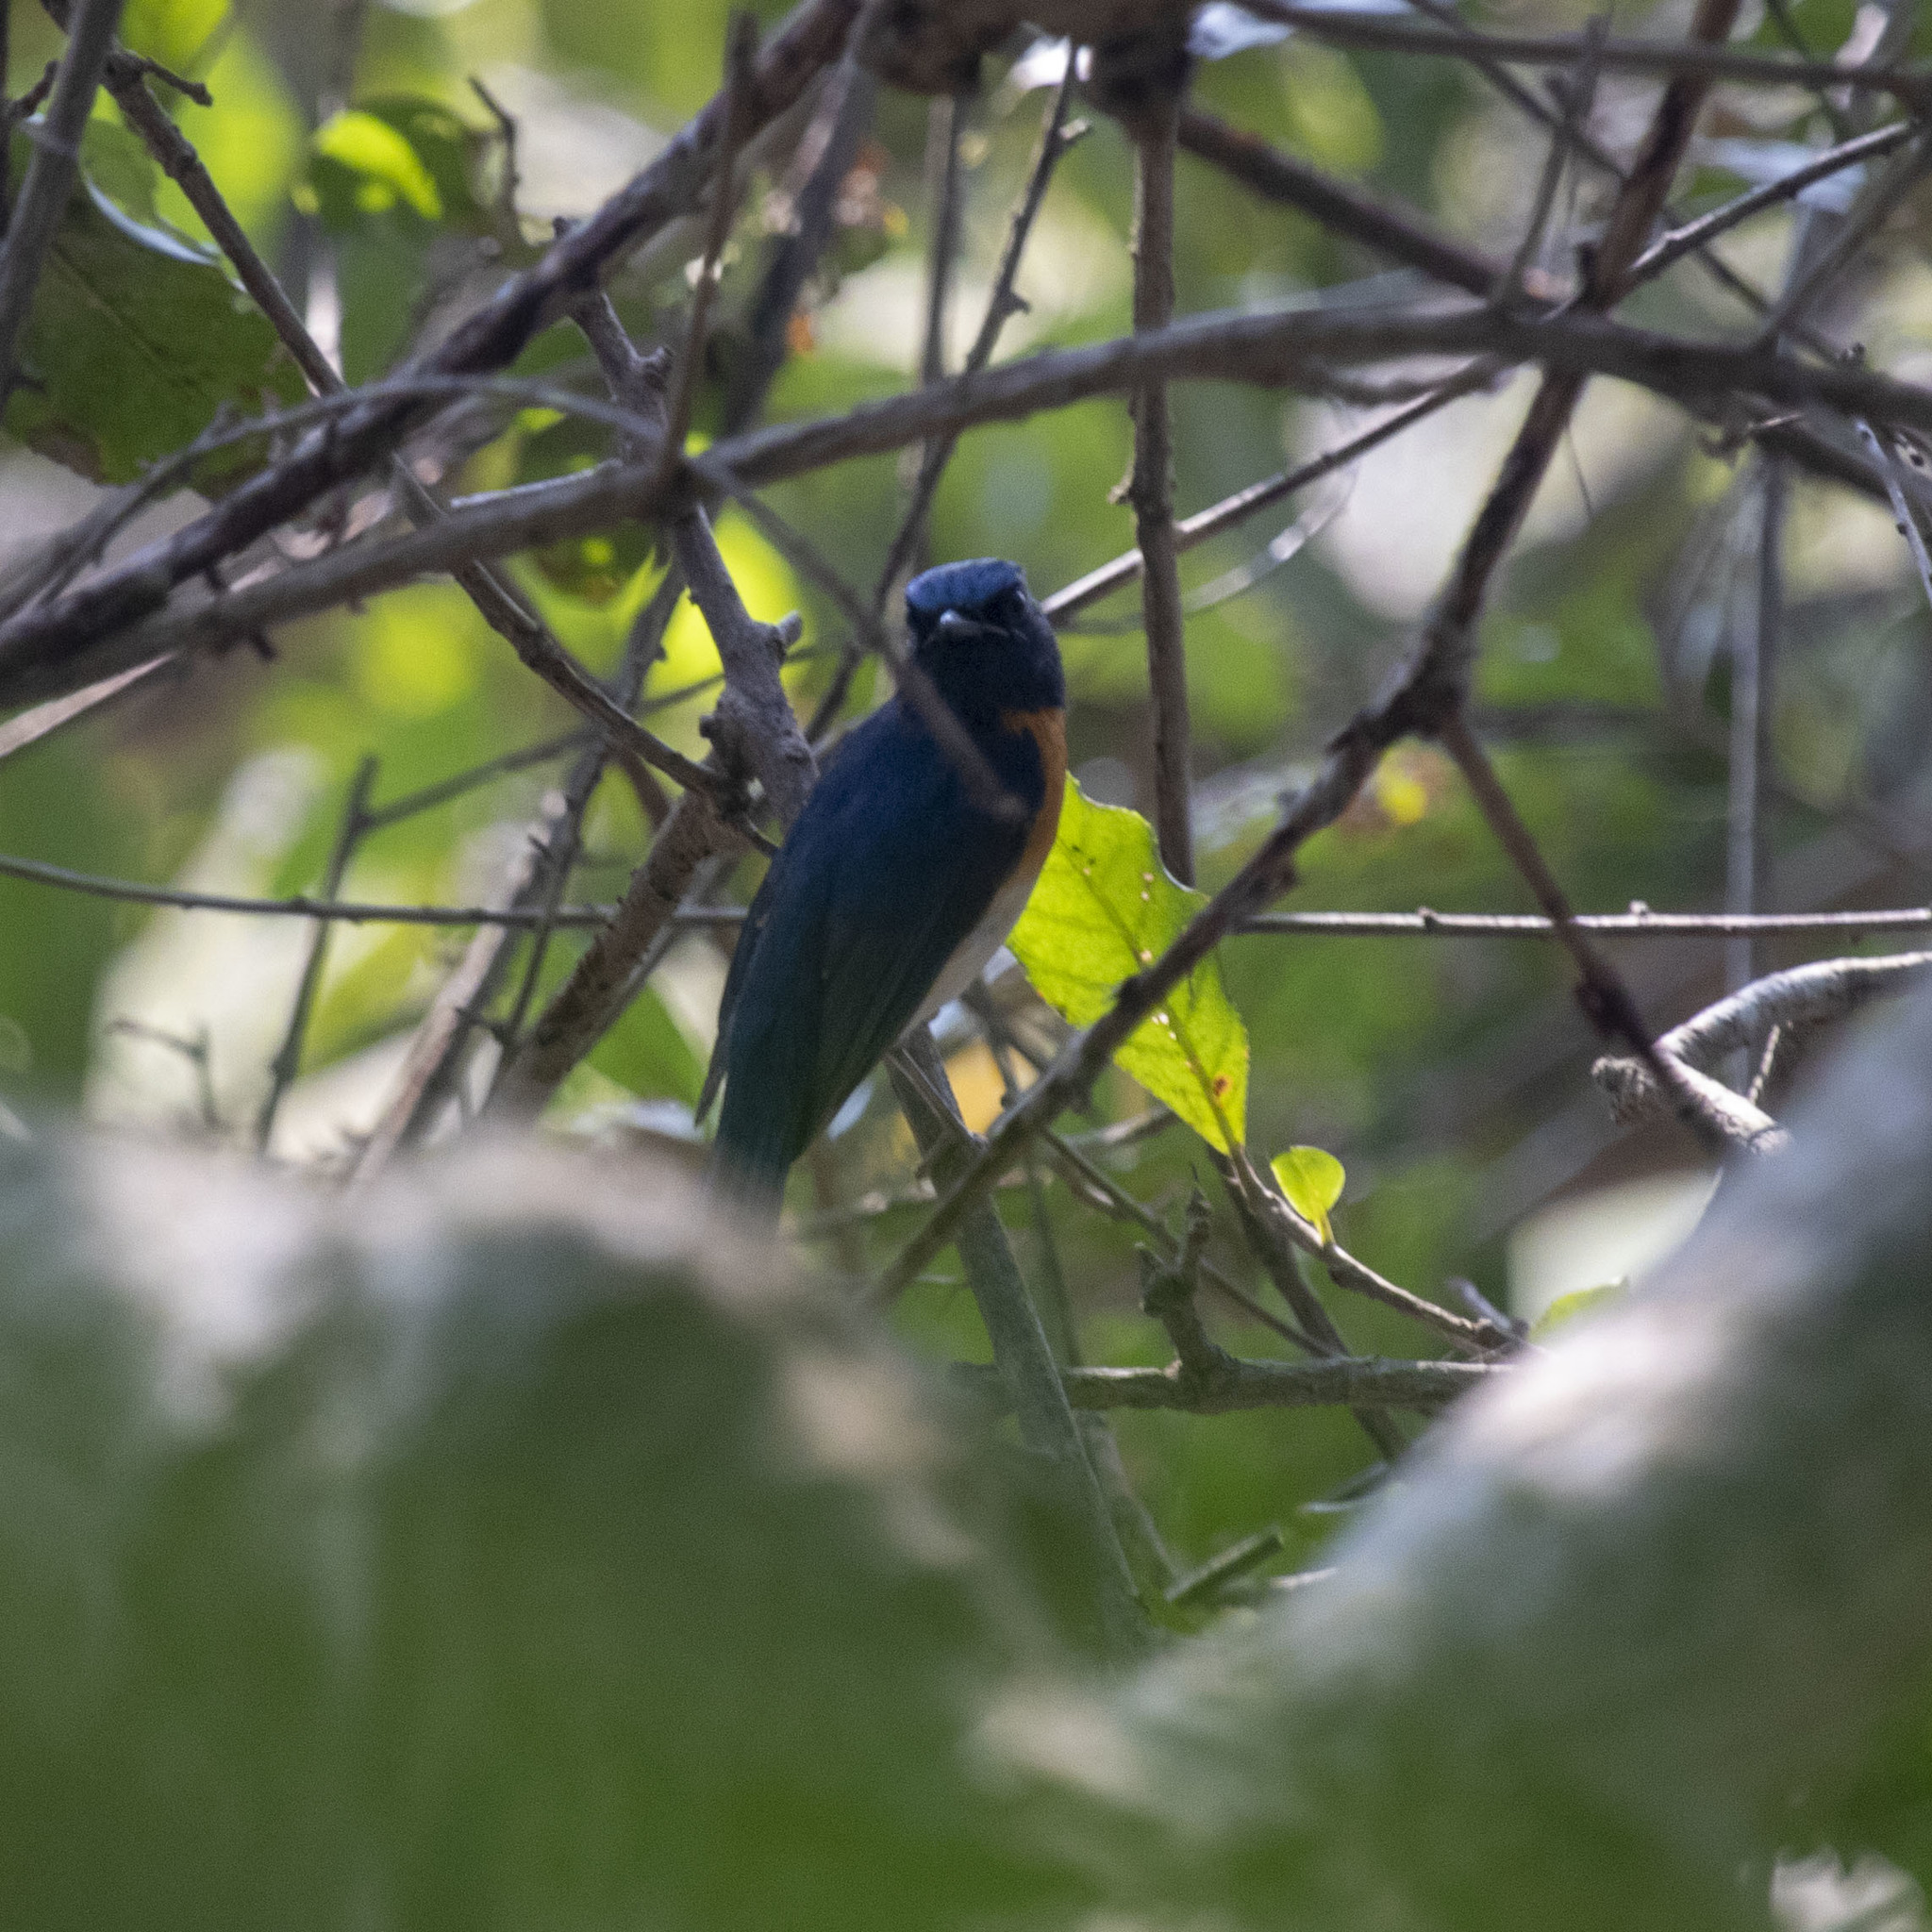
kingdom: Animalia
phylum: Chordata
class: Aves
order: Passeriformes
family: Muscicapidae
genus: Cyornis
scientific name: Cyornis rubeculoides
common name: Blue-throated blue flycatcher
